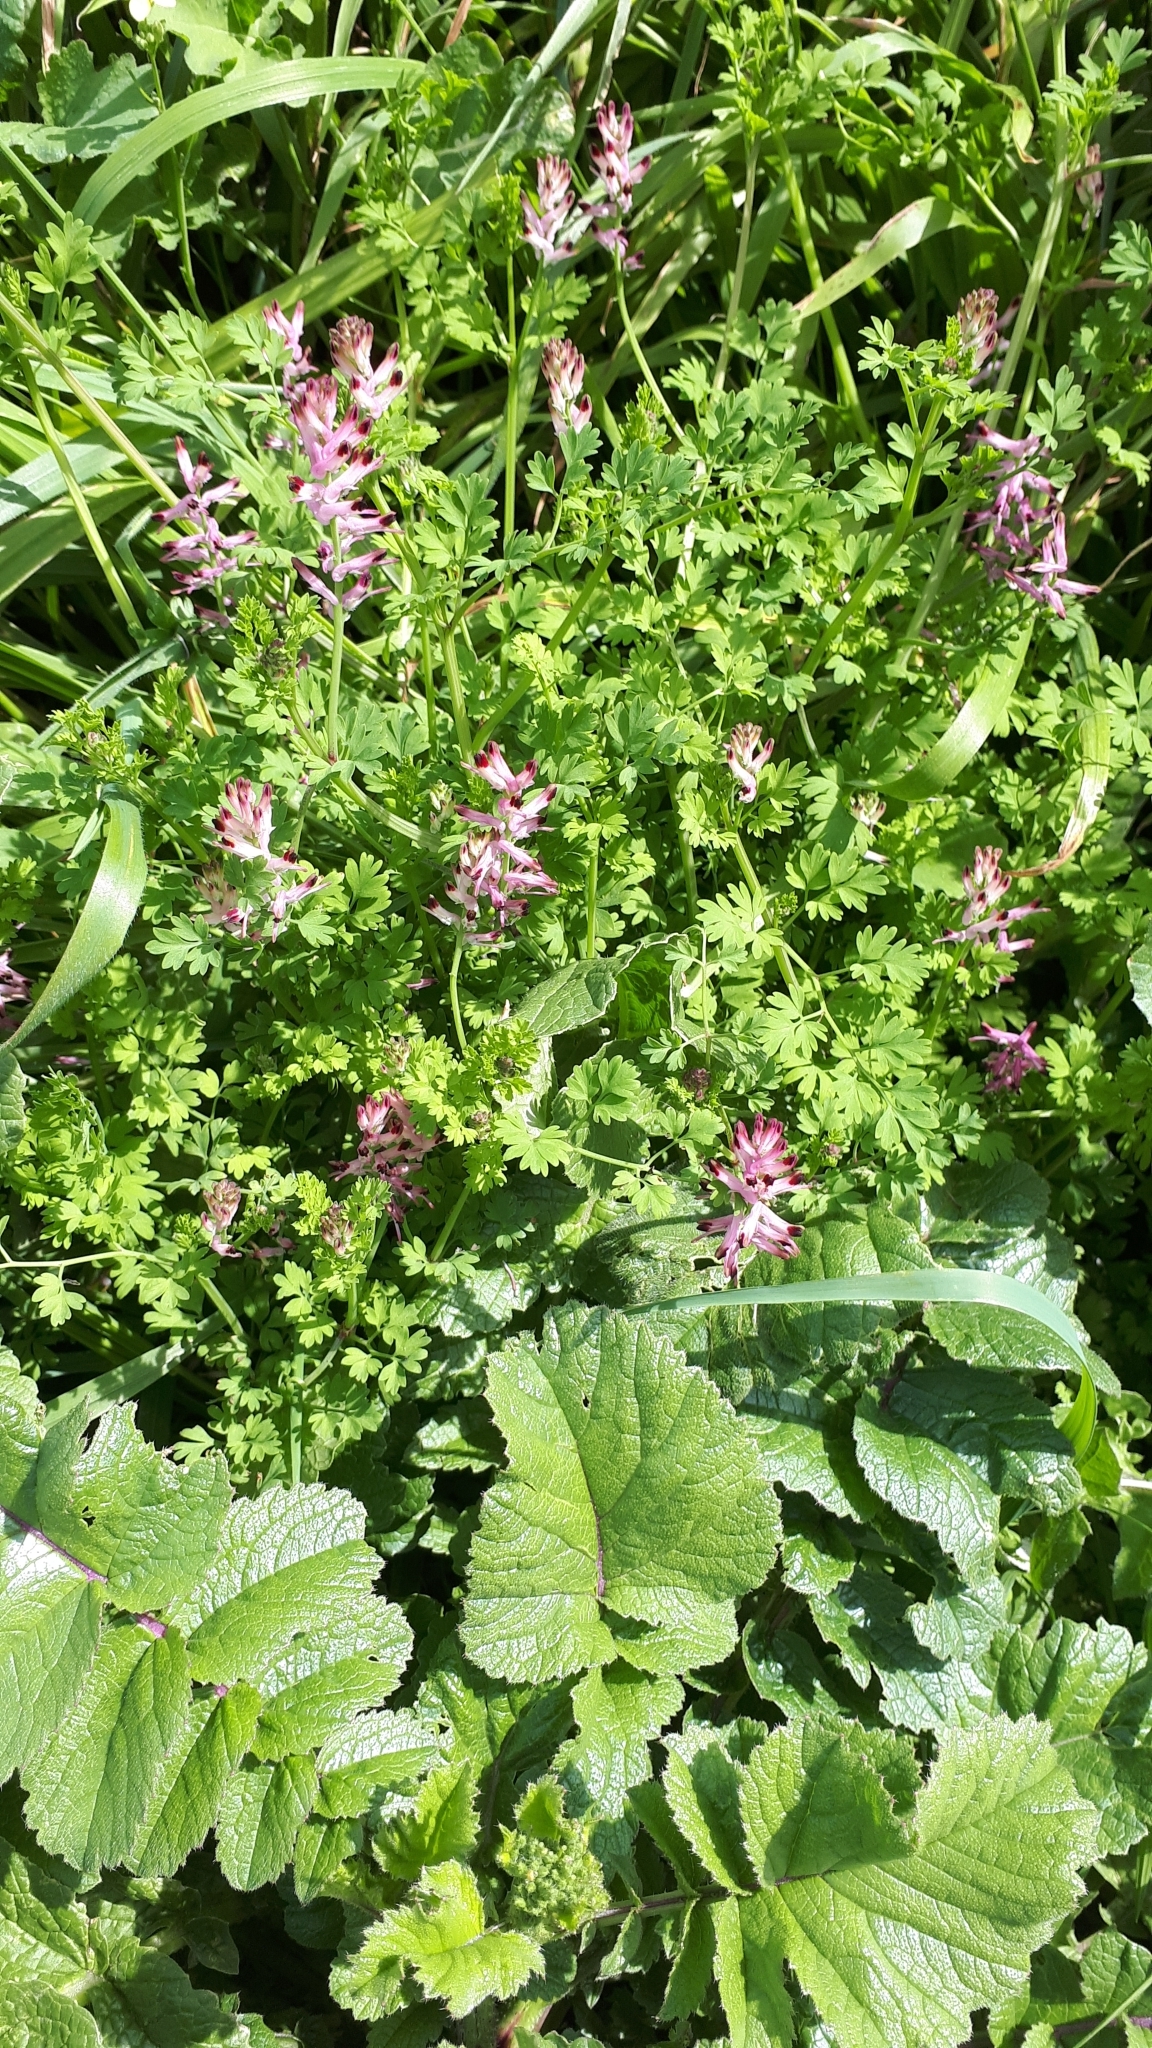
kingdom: Plantae
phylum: Tracheophyta
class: Magnoliopsida
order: Ranunculales
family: Papaveraceae
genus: Fumaria
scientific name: Fumaria bastardii
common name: Tall ramping-fumitory
